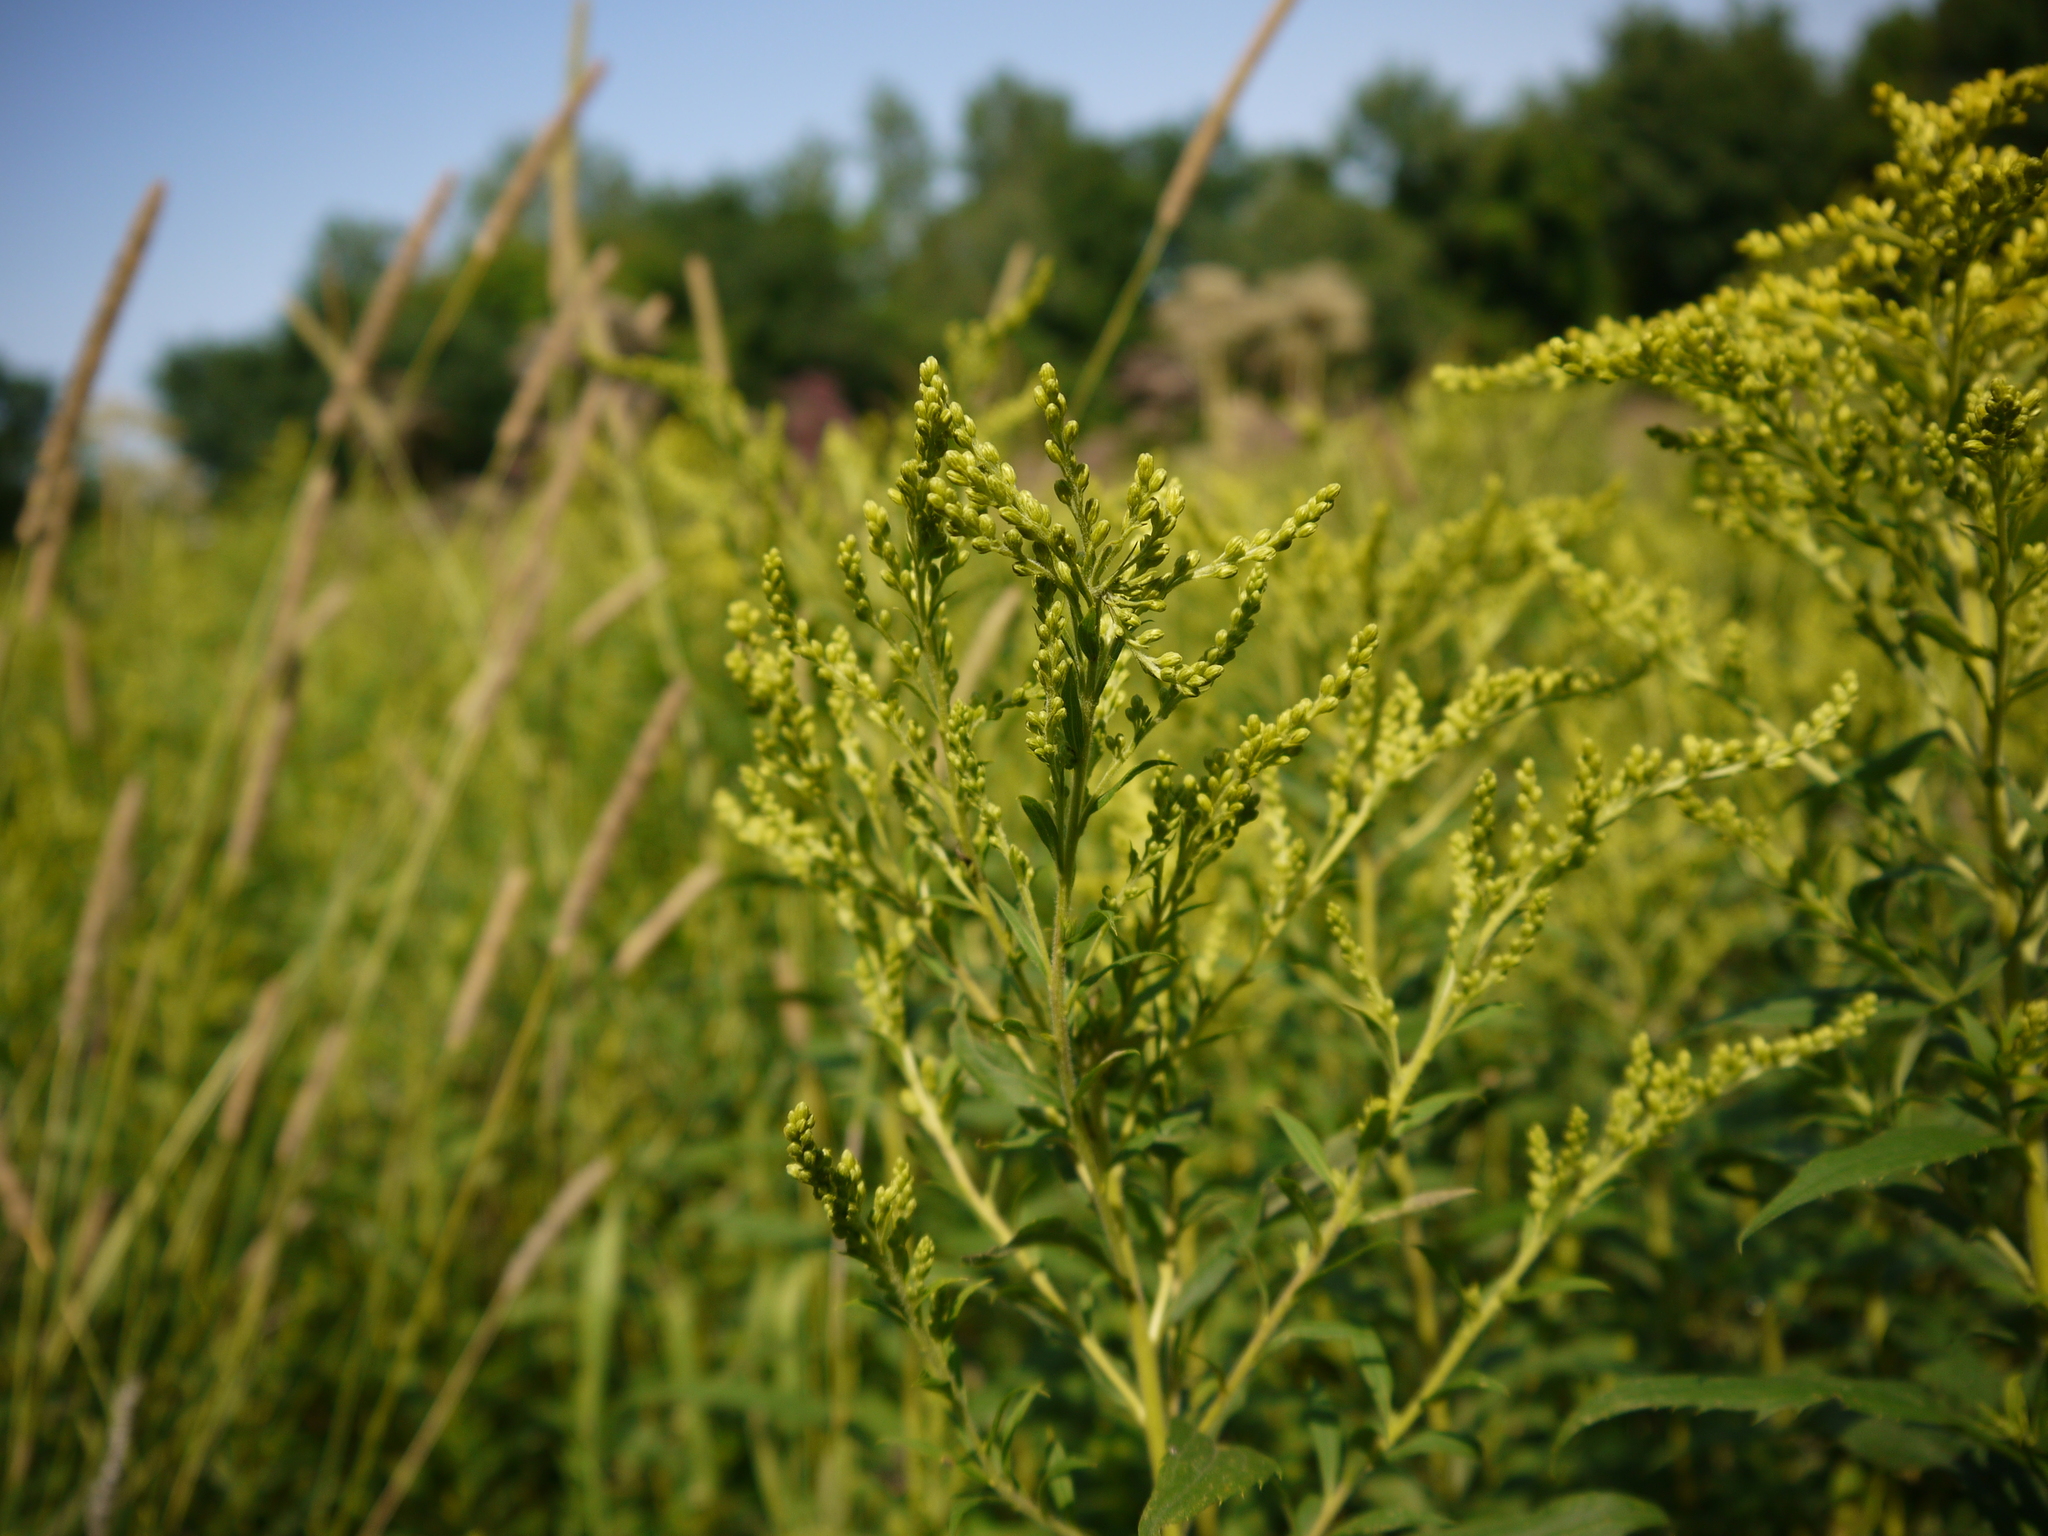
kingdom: Plantae
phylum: Tracheophyta
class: Magnoliopsida
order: Asterales
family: Asteraceae
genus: Solidago
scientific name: Solidago canadensis
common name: Canada goldenrod
